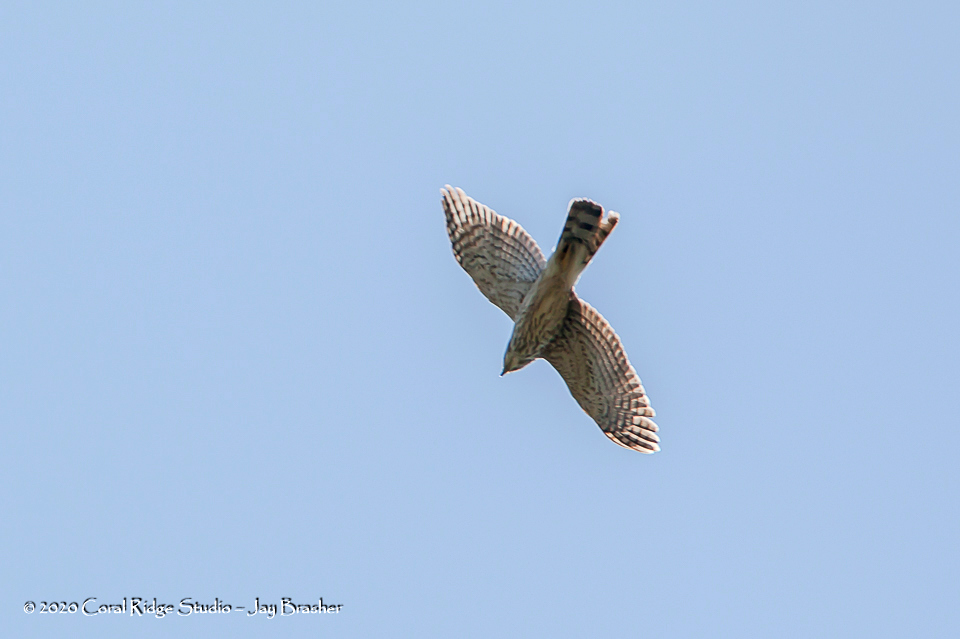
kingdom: Animalia
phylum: Chordata
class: Aves
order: Accipitriformes
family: Accipitridae
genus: Accipiter
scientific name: Accipiter striatus
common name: Sharp-shinned hawk
